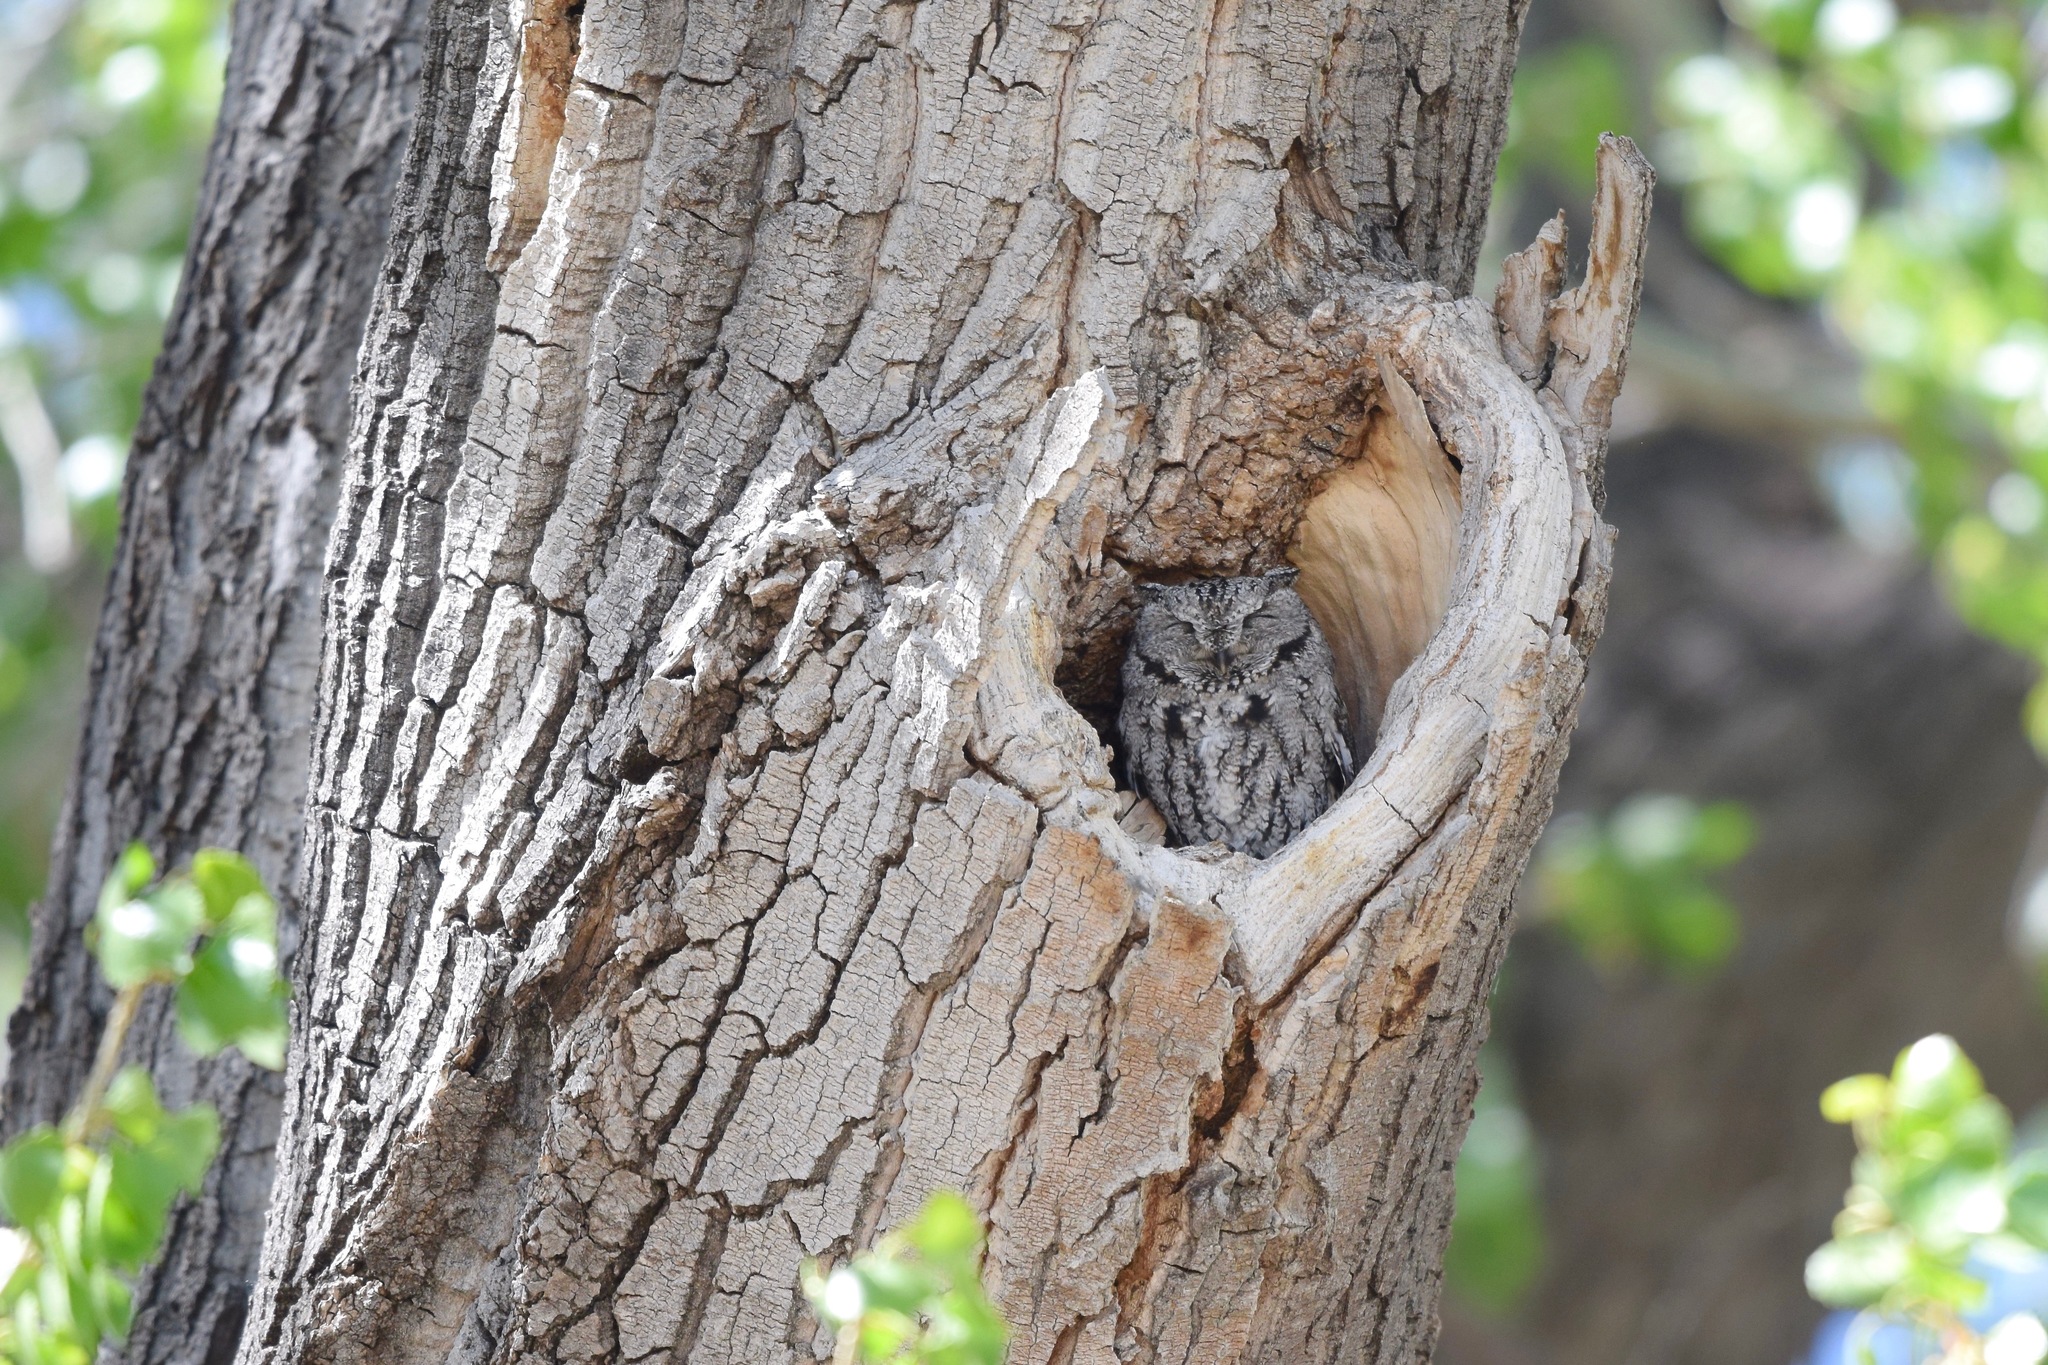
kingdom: Animalia
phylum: Chordata
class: Aves
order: Strigiformes
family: Strigidae
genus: Megascops
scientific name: Megascops kennicottii
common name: Western screech-owl
